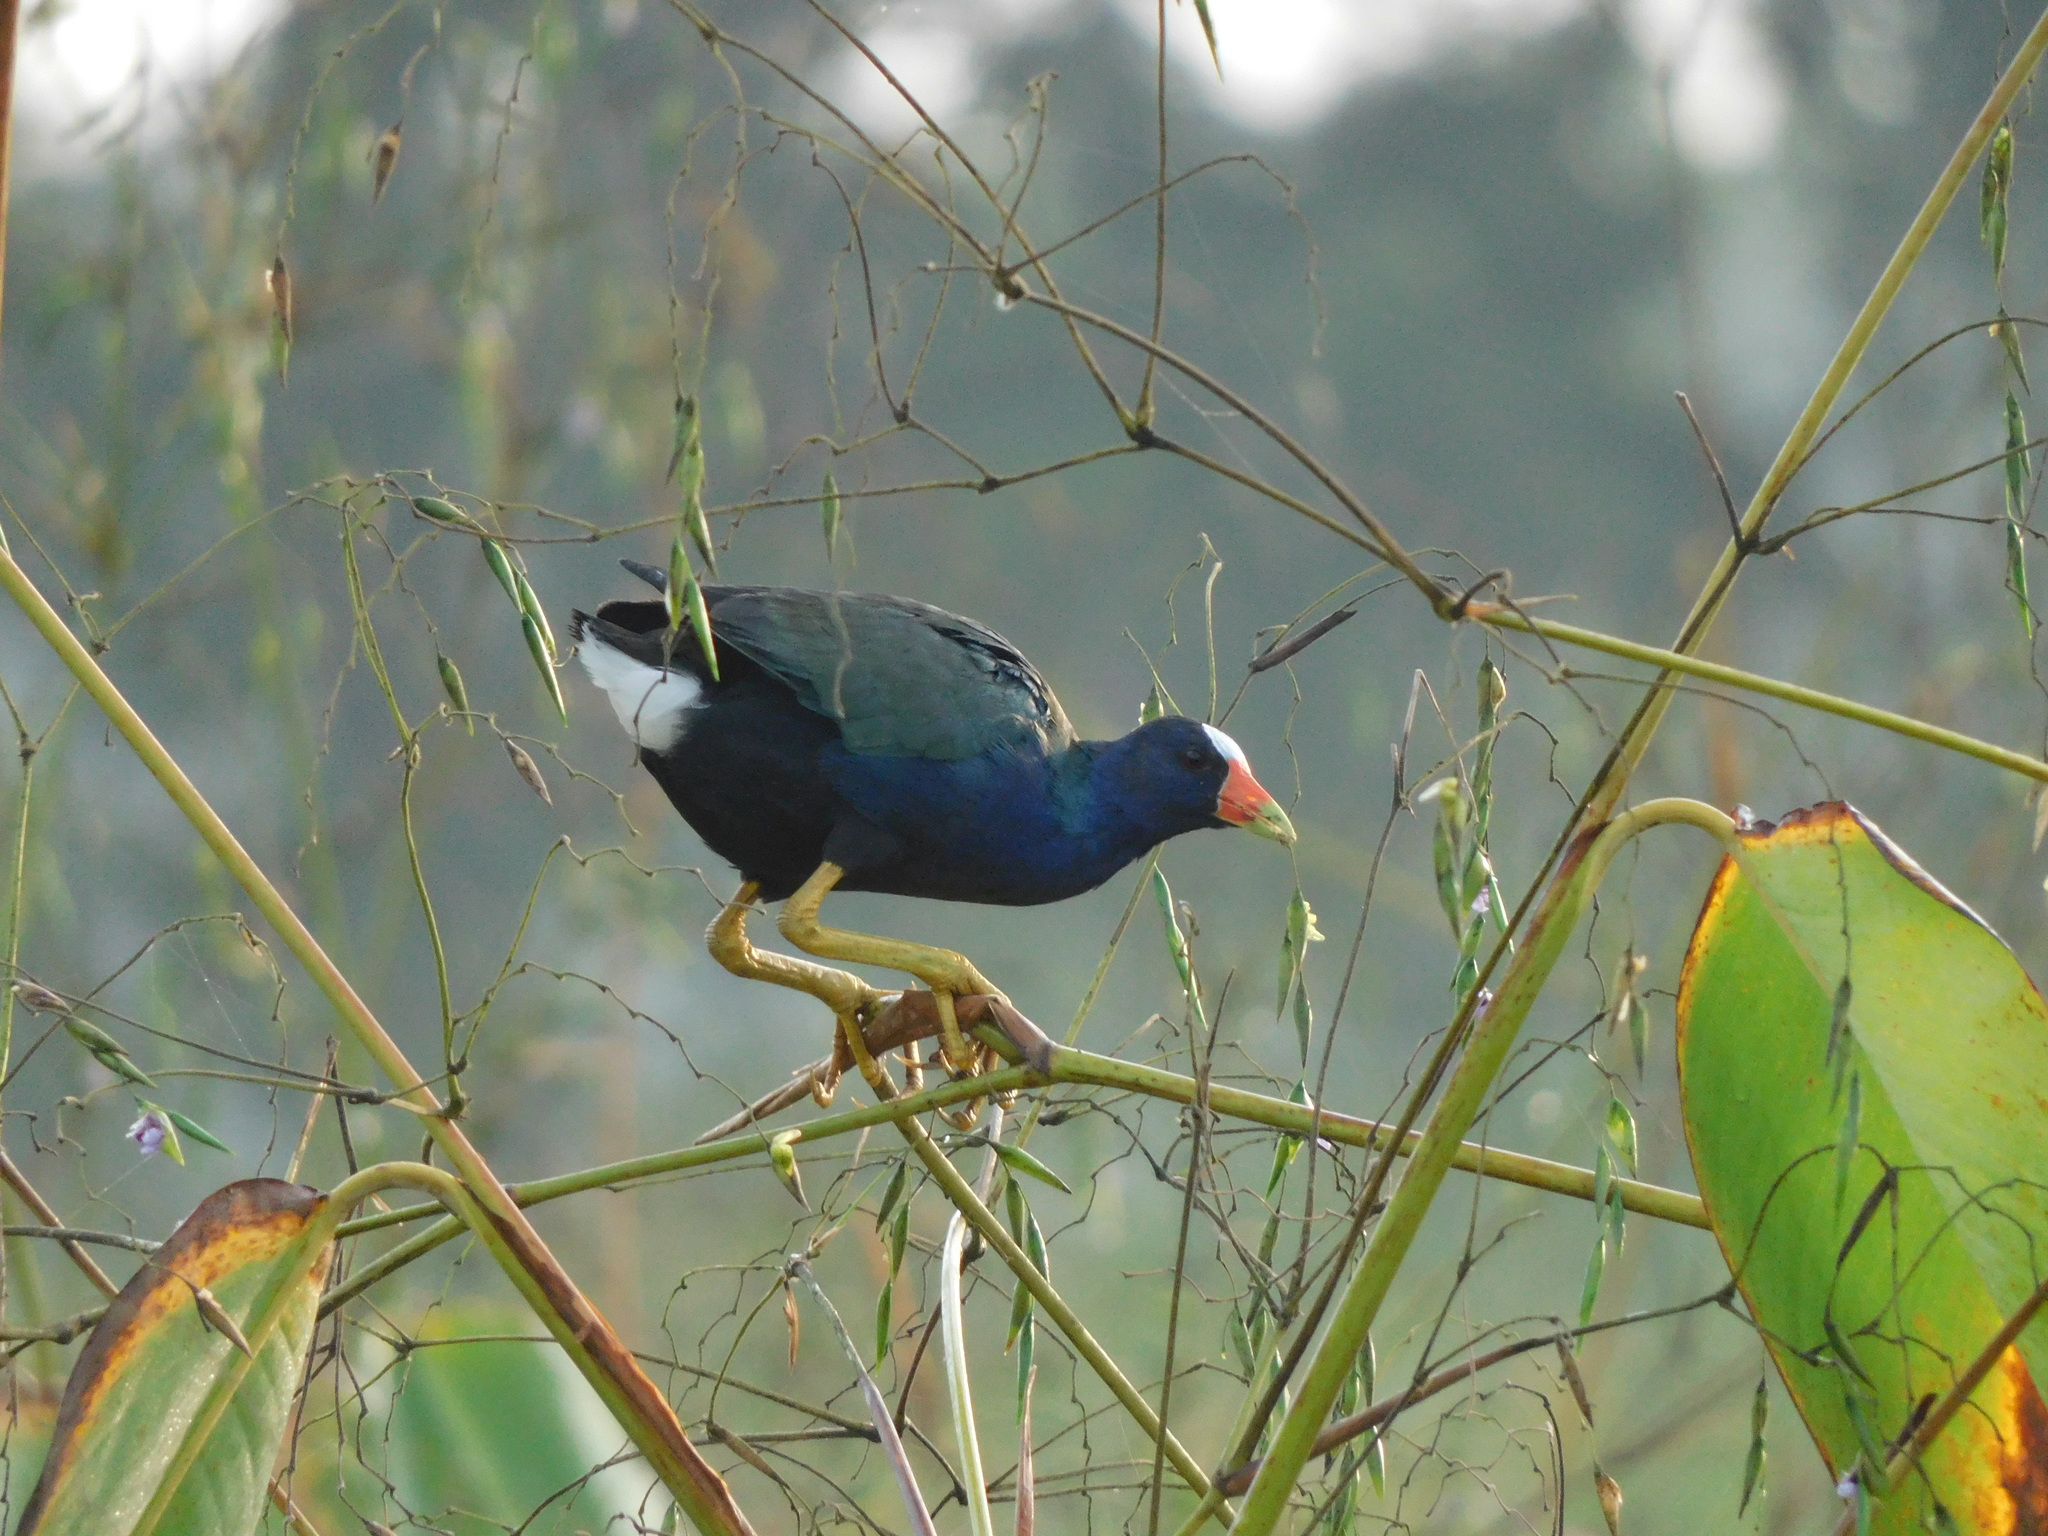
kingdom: Animalia
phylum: Chordata
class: Aves
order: Gruiformes
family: Rallidae
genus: Porphyrio
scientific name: Porphyrio martinica
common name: Purple gallinule
